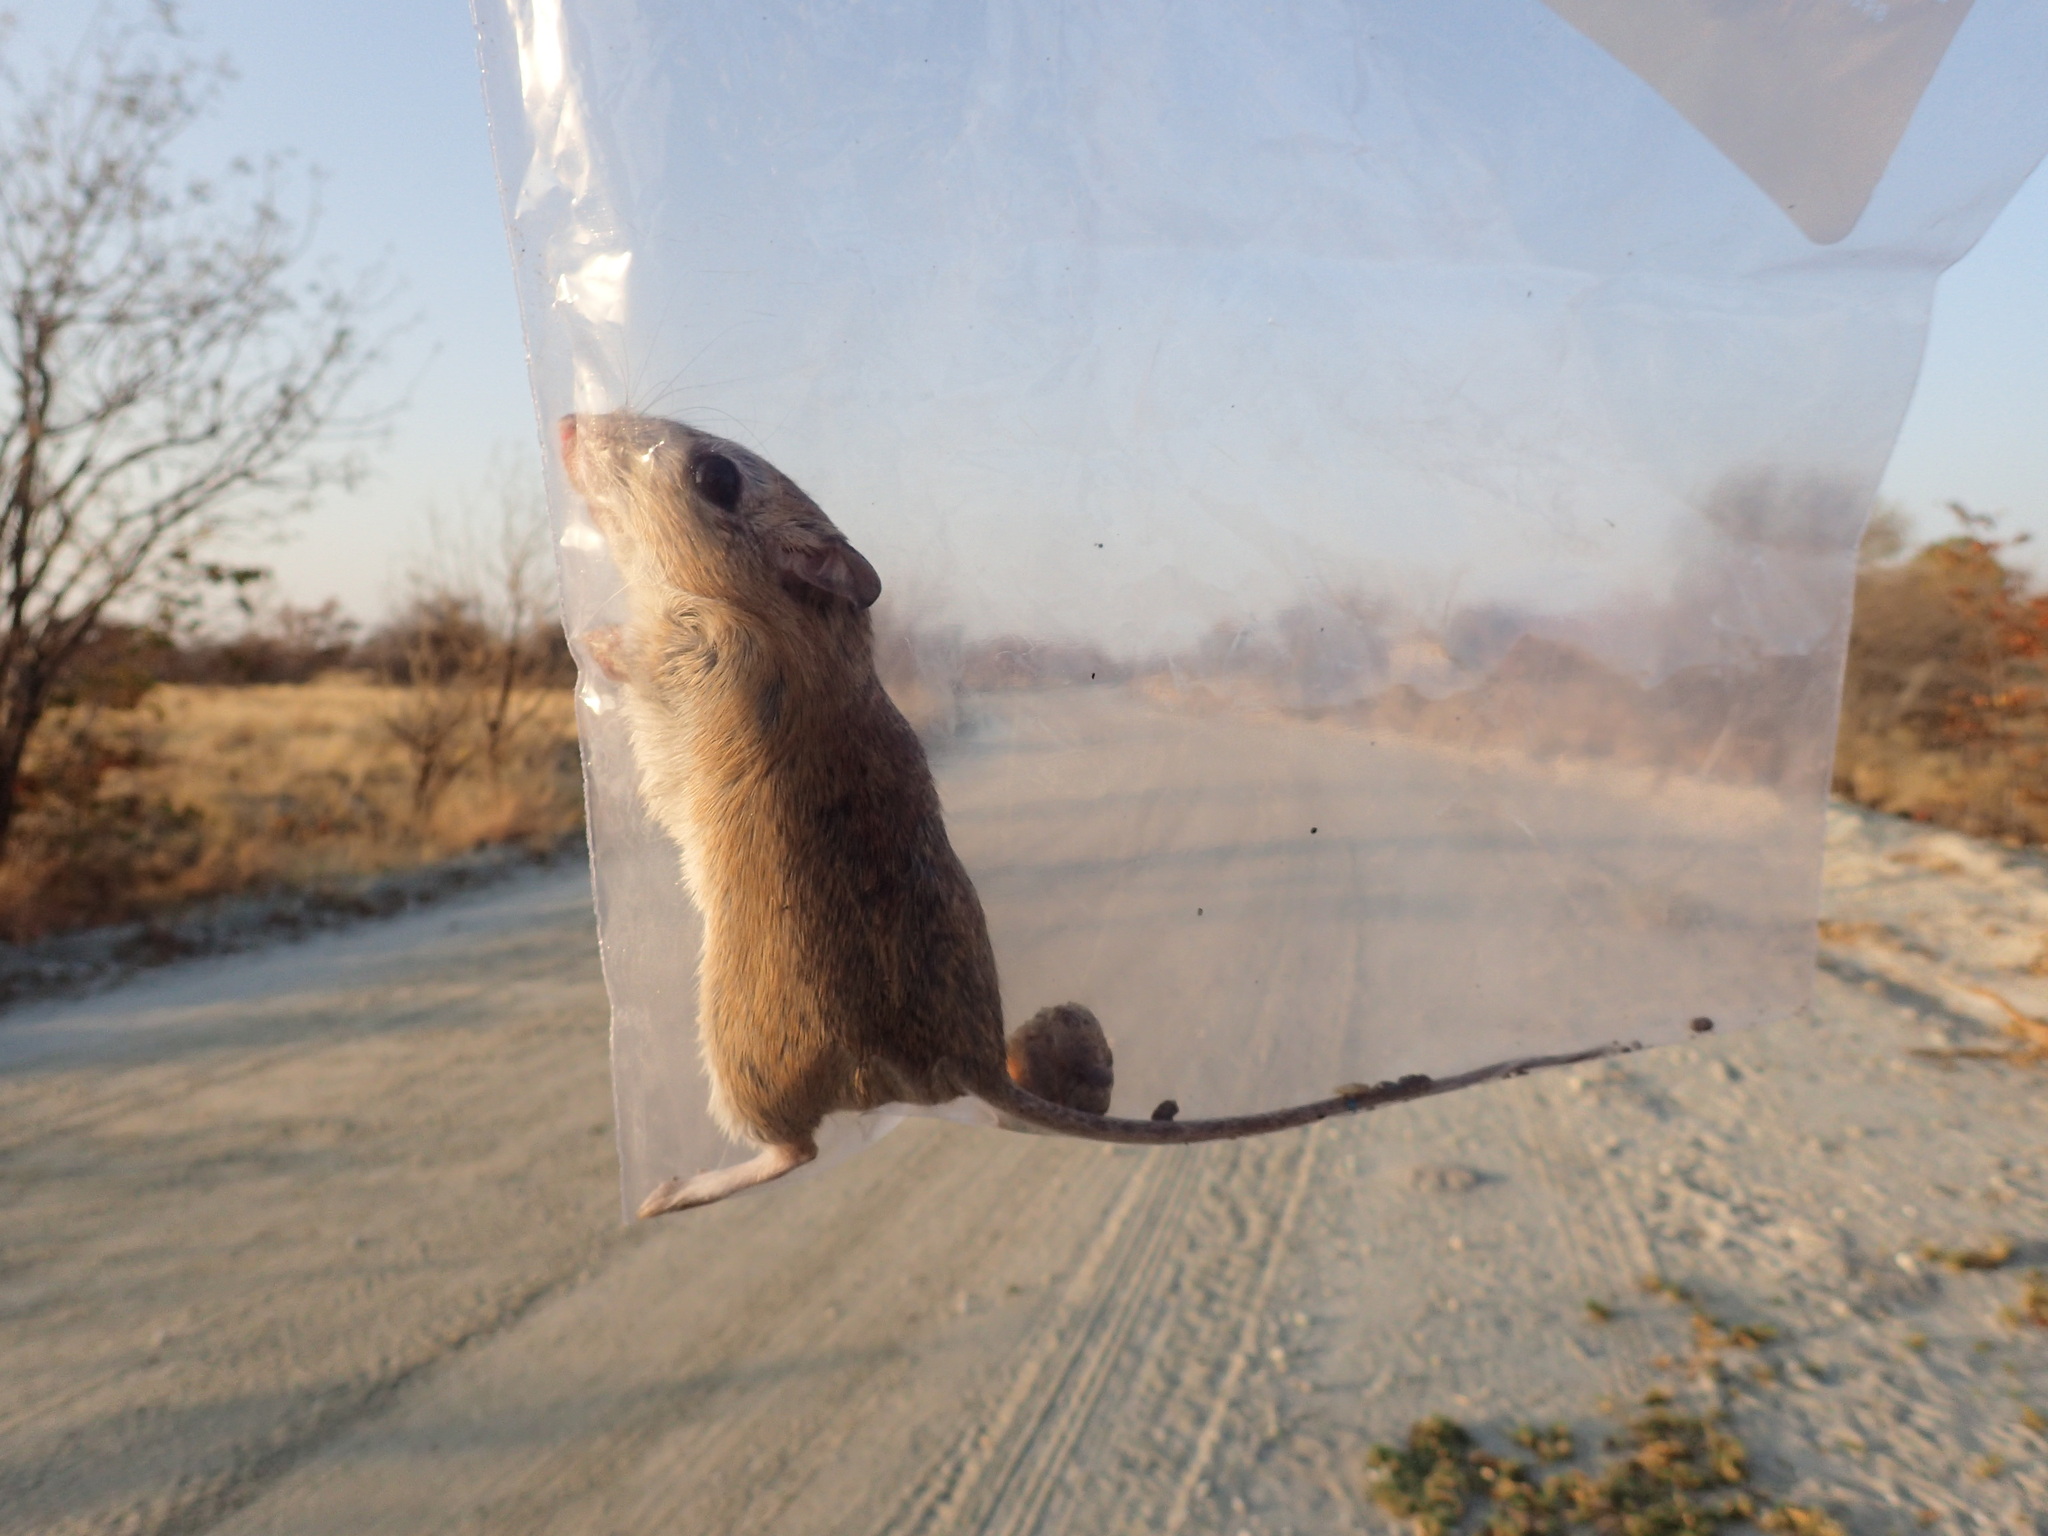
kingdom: Animalia
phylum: Chordata
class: Mammalia
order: Rodentia
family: Muridae
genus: Gerbilliscus
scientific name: Gerbilliscus leucogaster
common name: Bushveld gerbil
